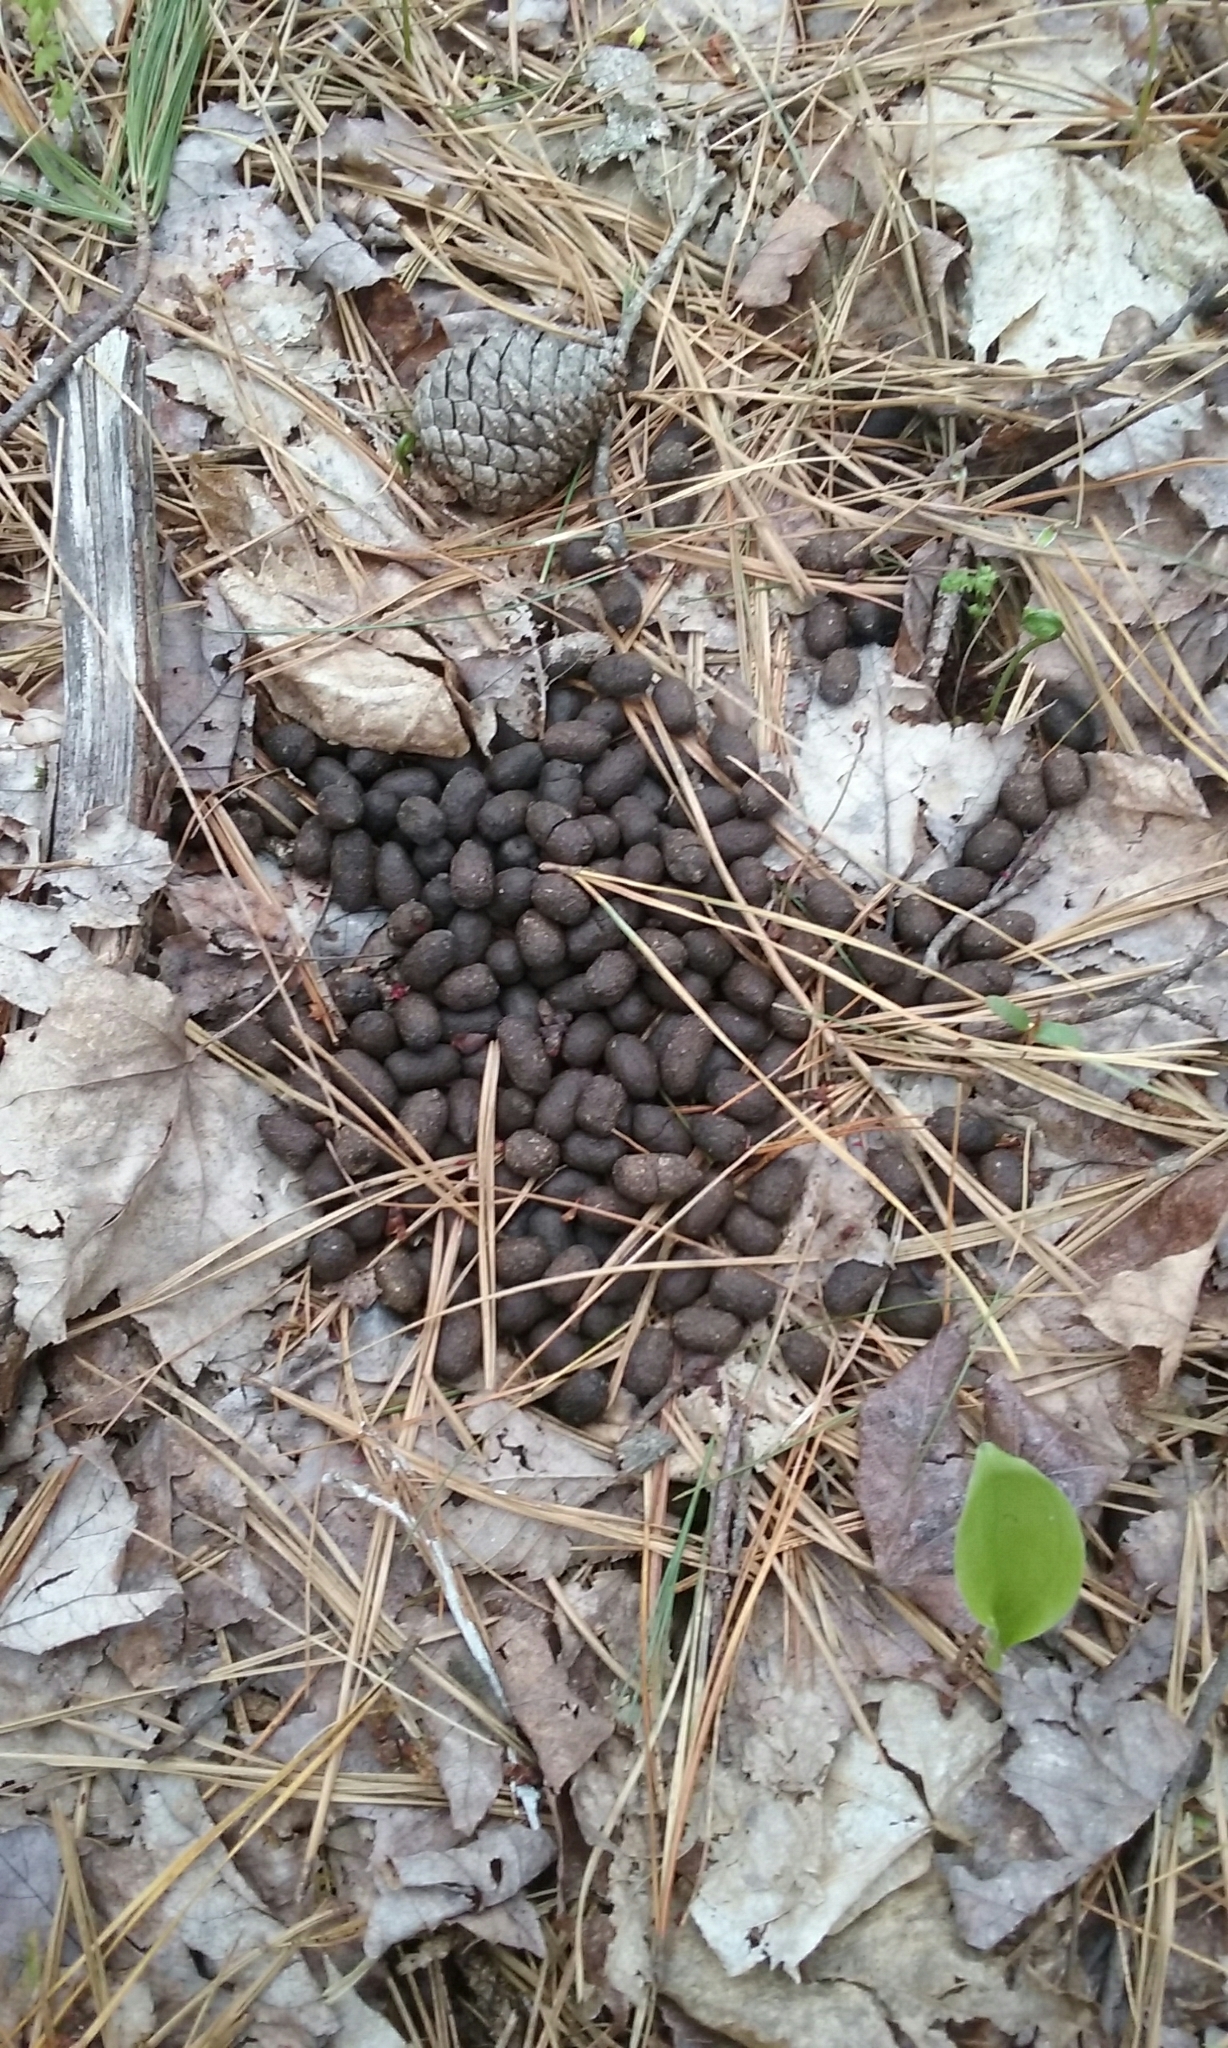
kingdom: Animalia
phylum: Chordata
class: Mammalia
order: Artiodactyla
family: Cervidae
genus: Odocoileus
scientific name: Odocoileus virginianus
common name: White-tailed deer
